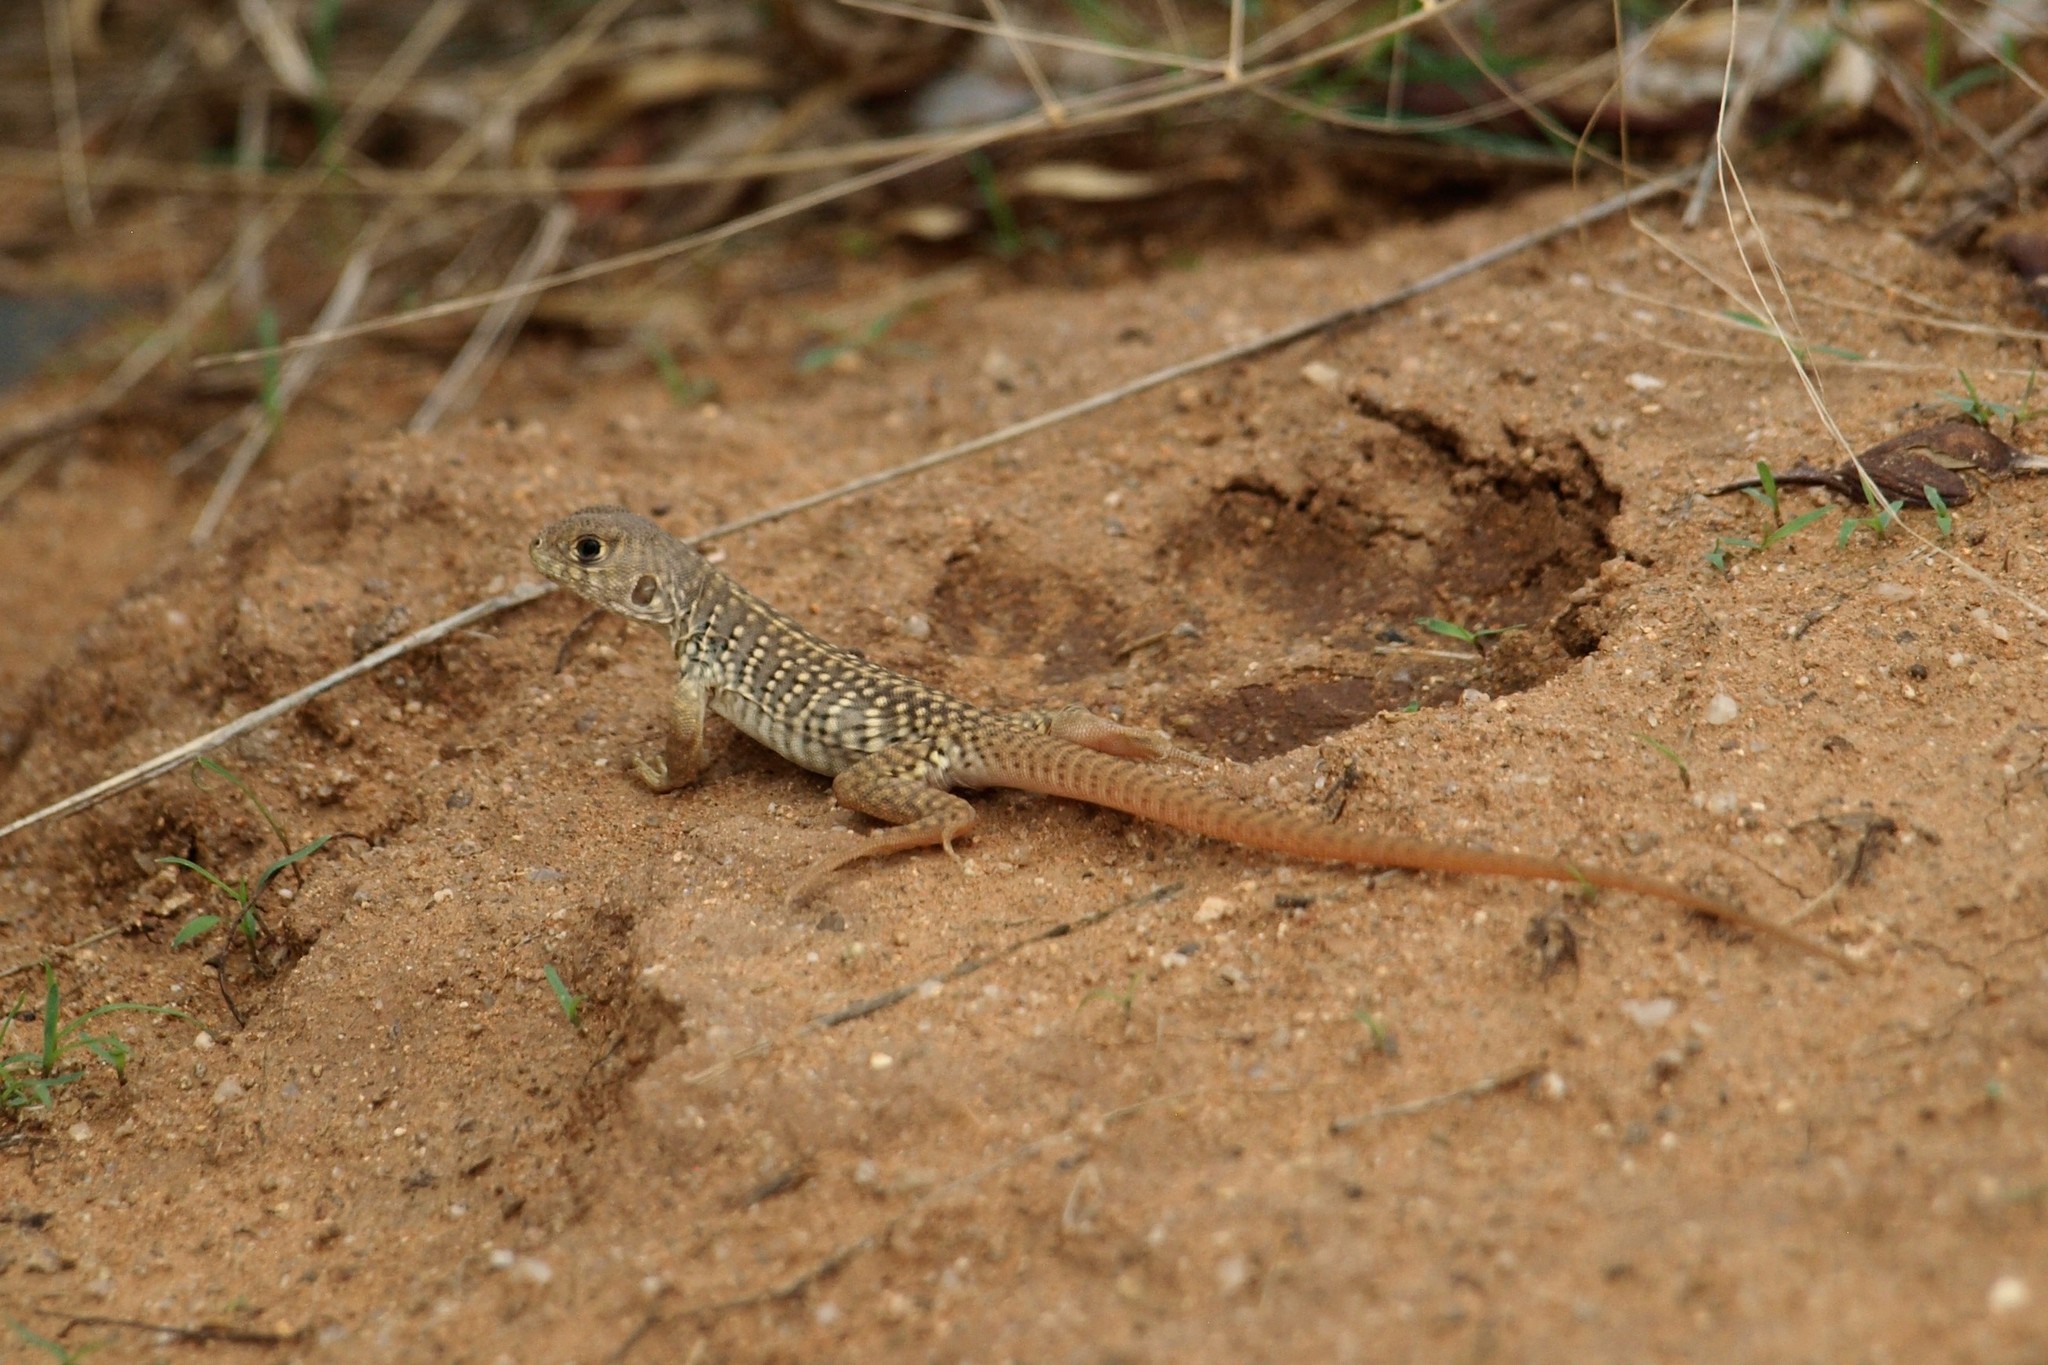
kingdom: Animalia
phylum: Chordata
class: Squamata
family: Iguanidae
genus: Dipsosaurus
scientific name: Dipsosaurus dorsalis
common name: Desert iguana
